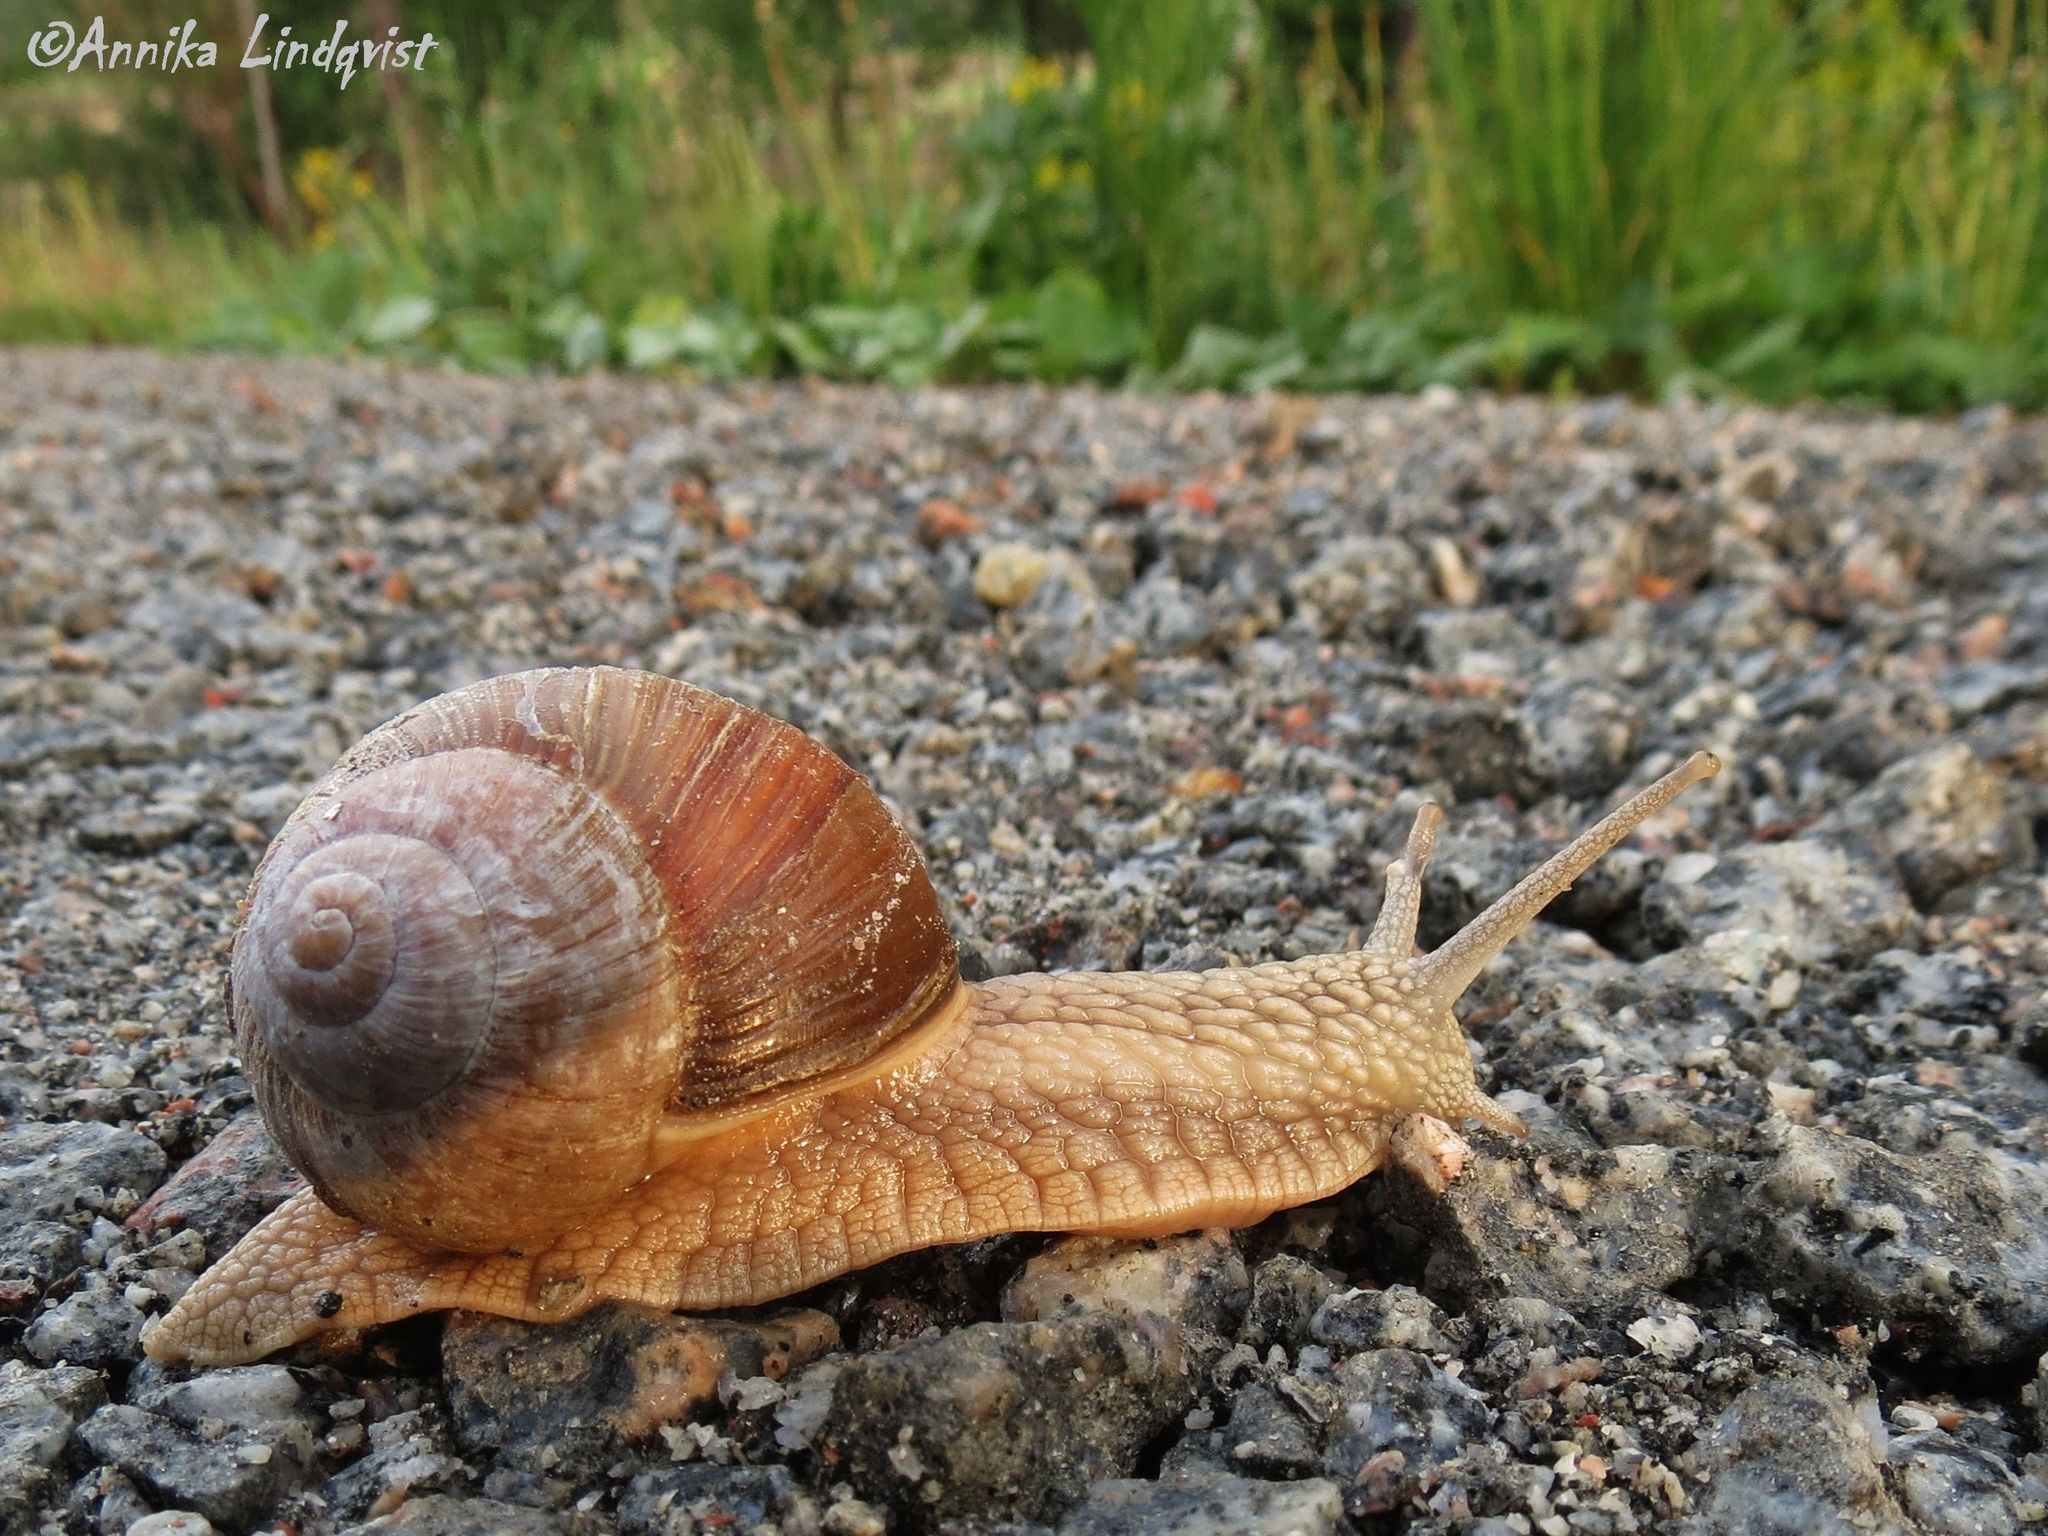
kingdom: Animalia
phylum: Mollusca
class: Gastropoda
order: Stylommatophora
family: Helicidae
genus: Helix
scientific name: Helix pomatia
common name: Roman snail
